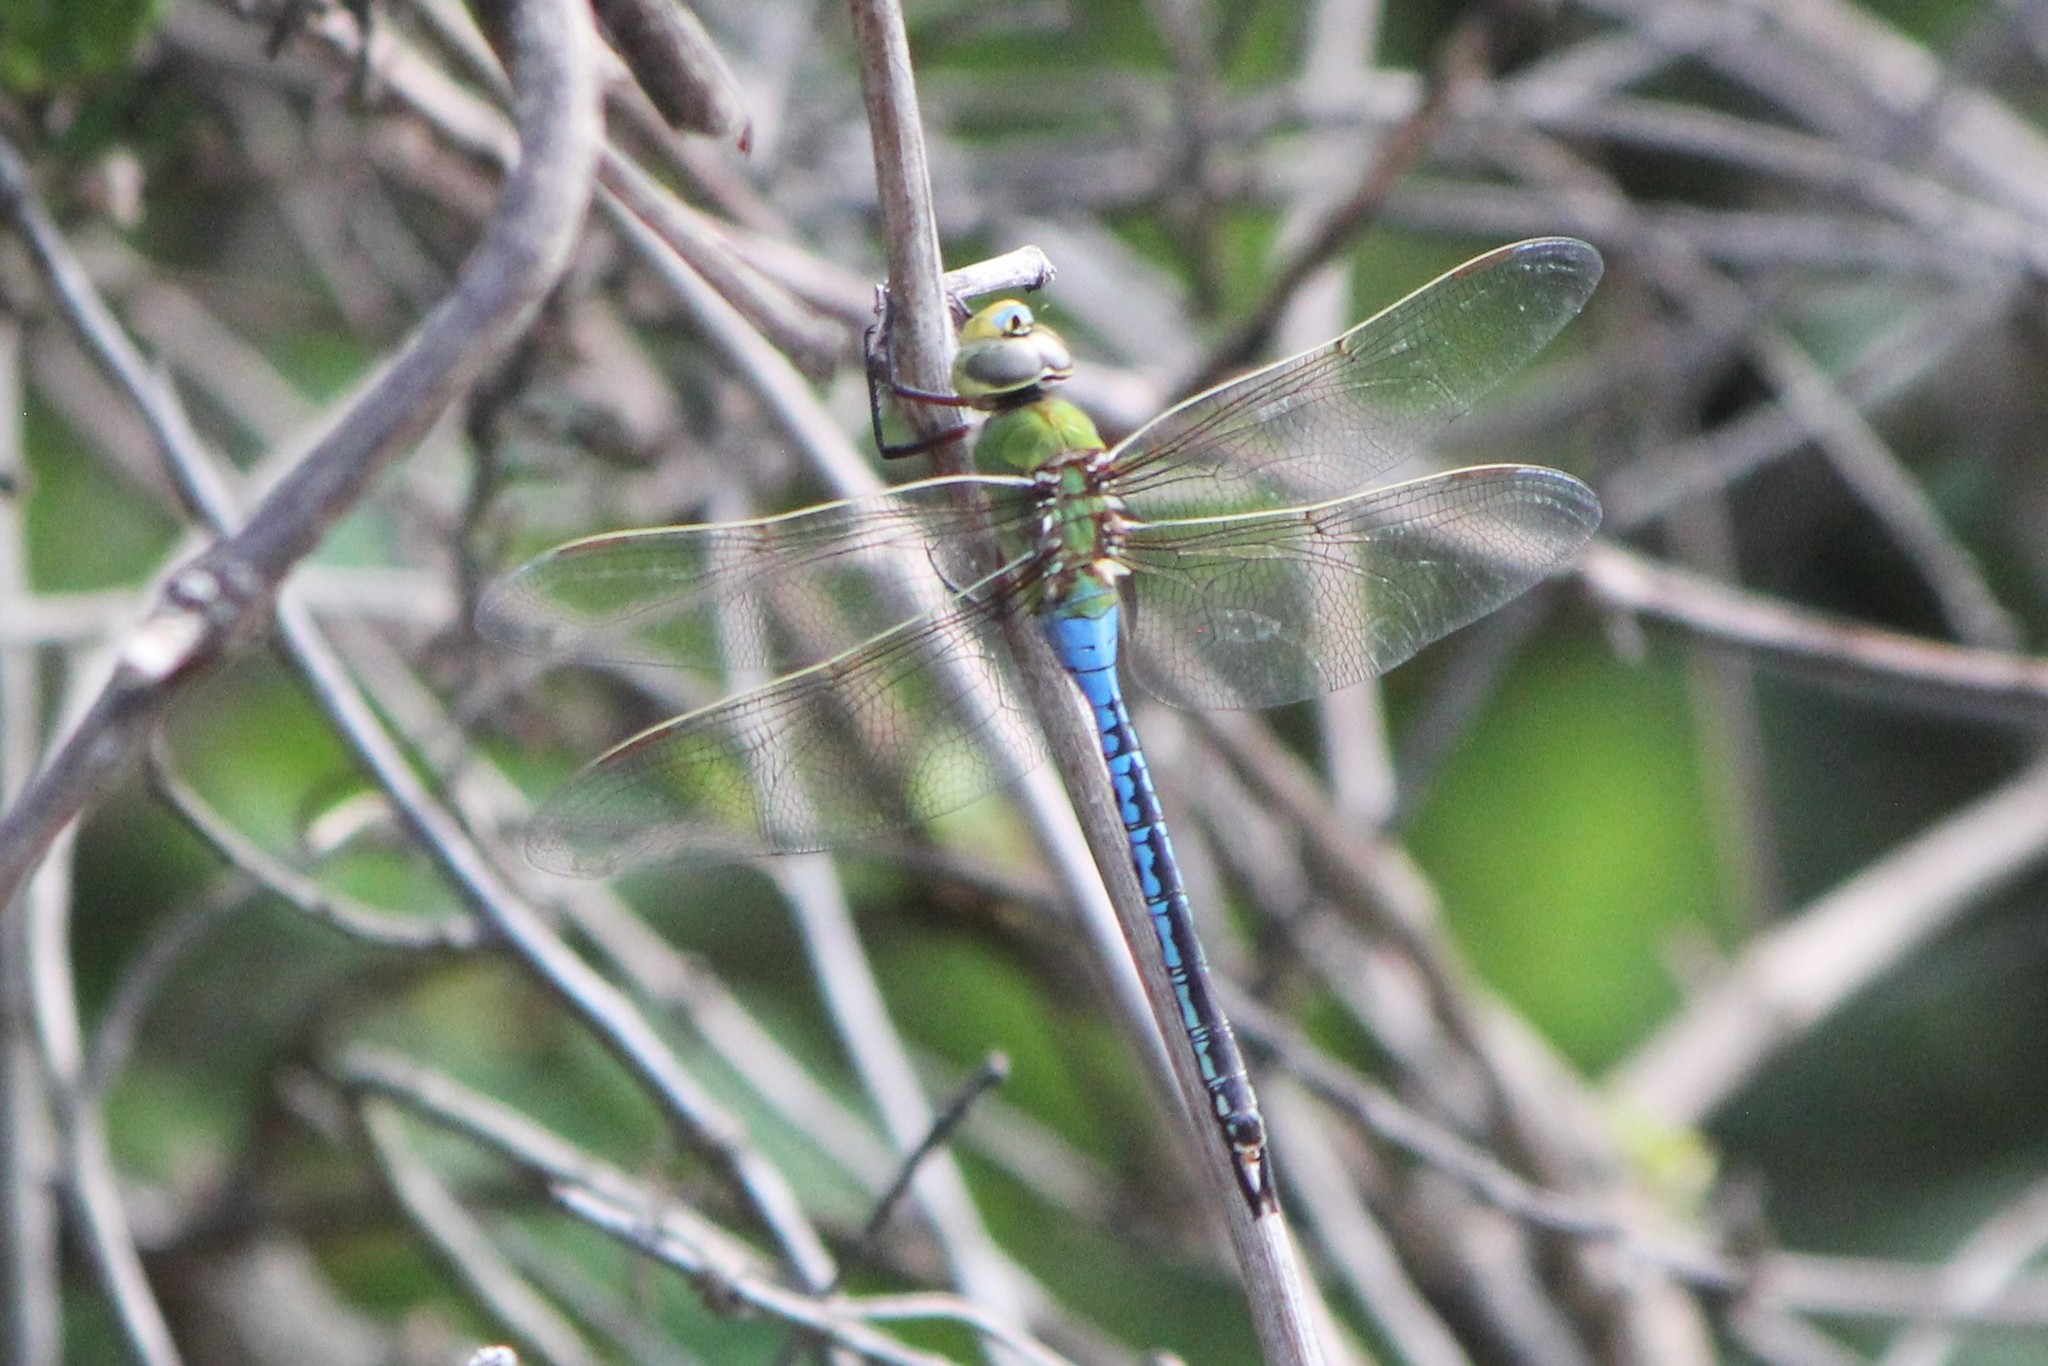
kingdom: Animalia
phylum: Arthropoda
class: Insecta
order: Odonata
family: Aeshnidae
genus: Anax
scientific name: Anax junius
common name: Common green darner
